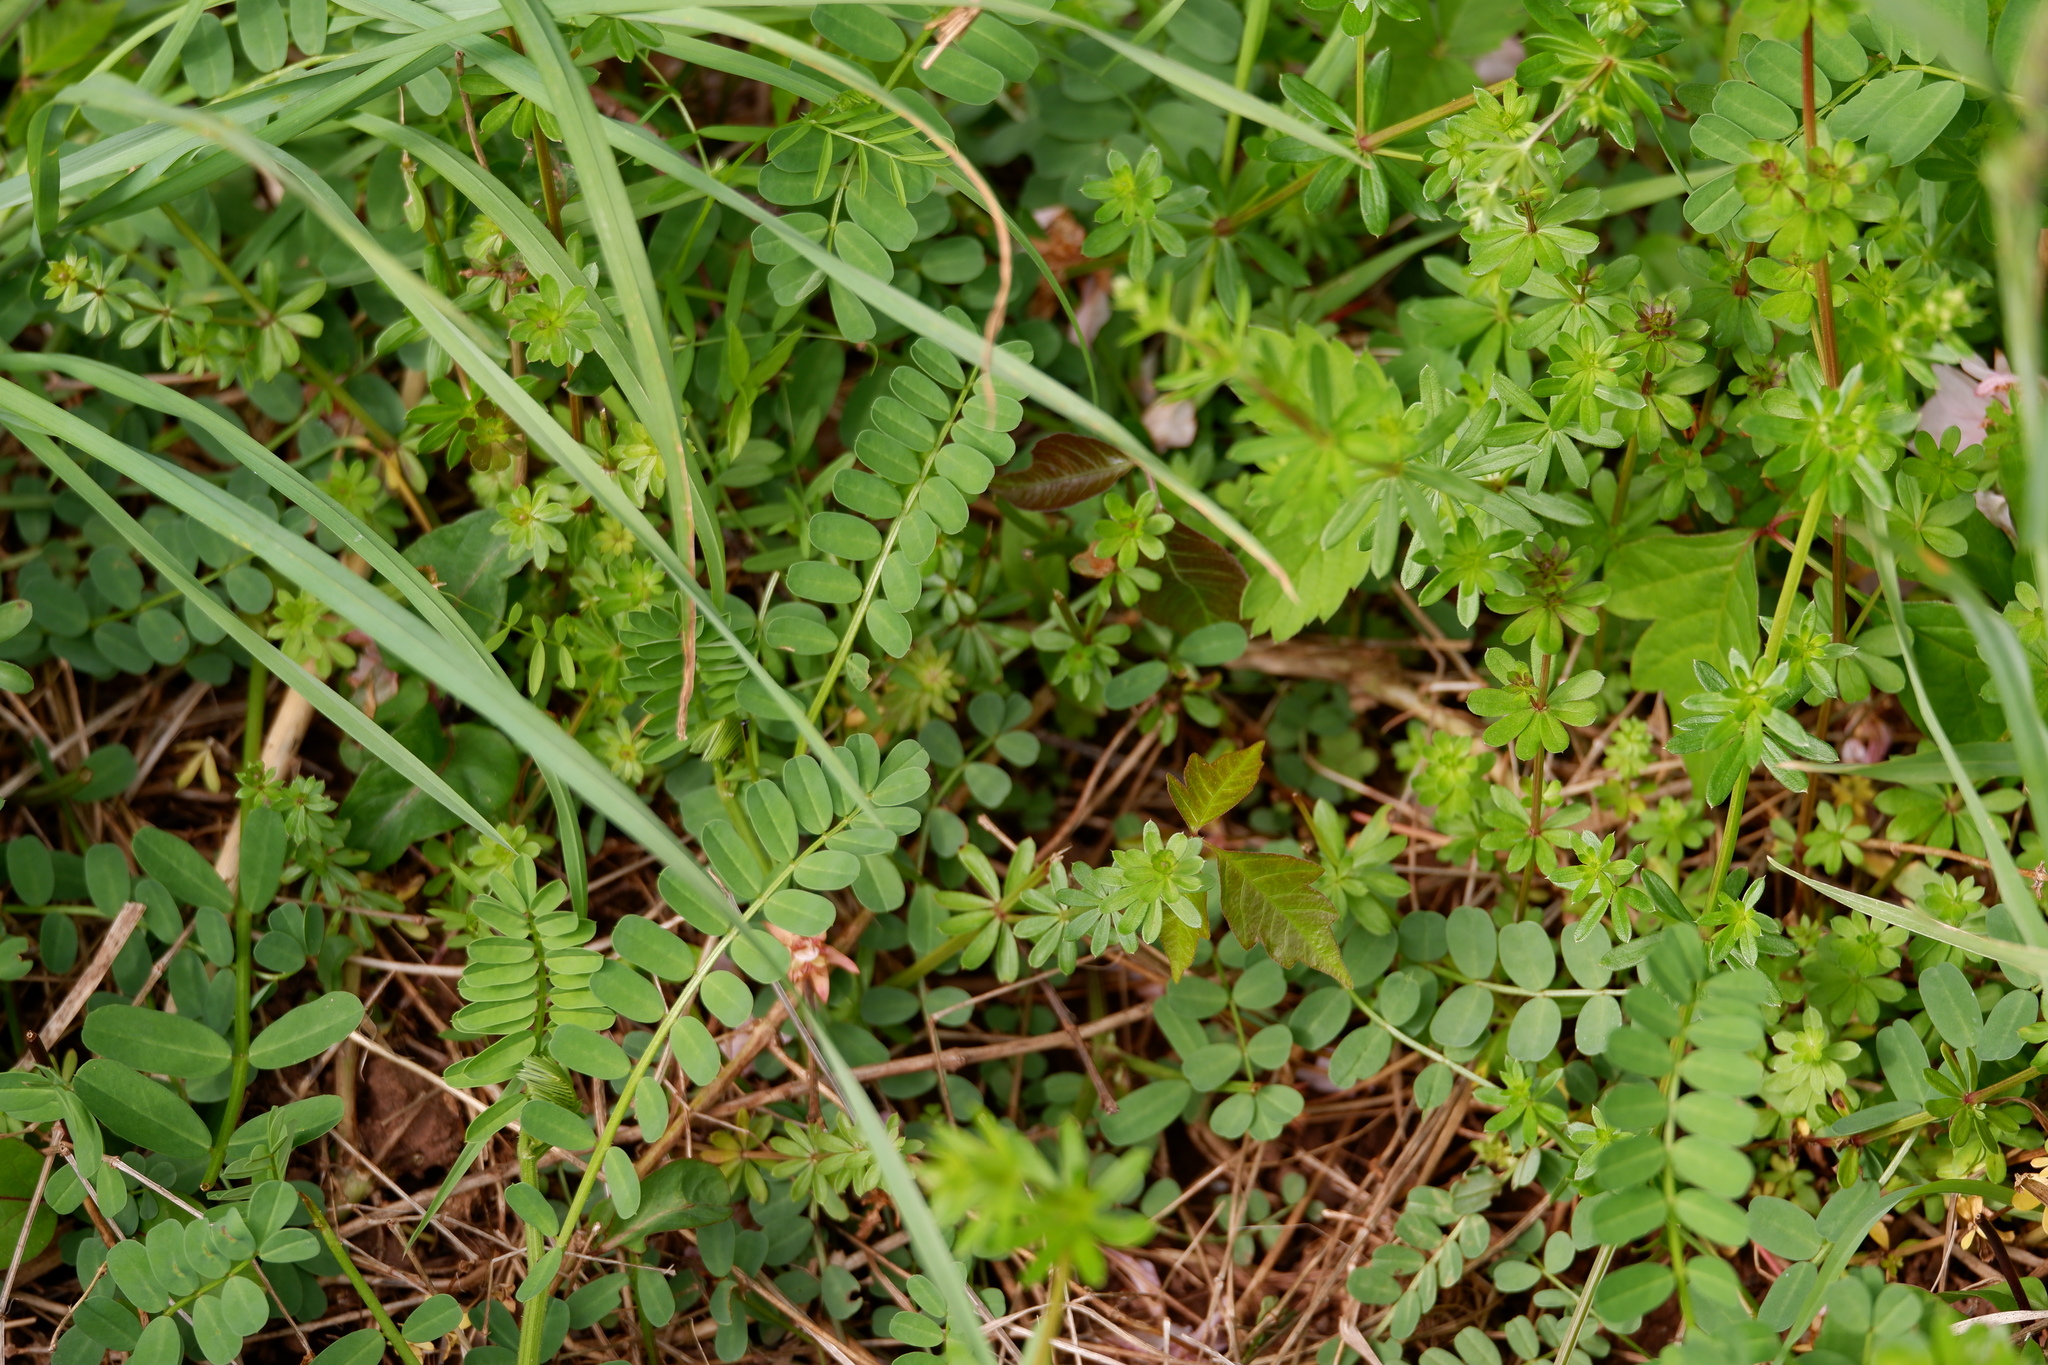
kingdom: Plantae
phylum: Tracheophyta
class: Magnoliopsida
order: Fabales
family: Fabaceae
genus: Coronilla
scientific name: Coronilla varia
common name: Crownvetch
